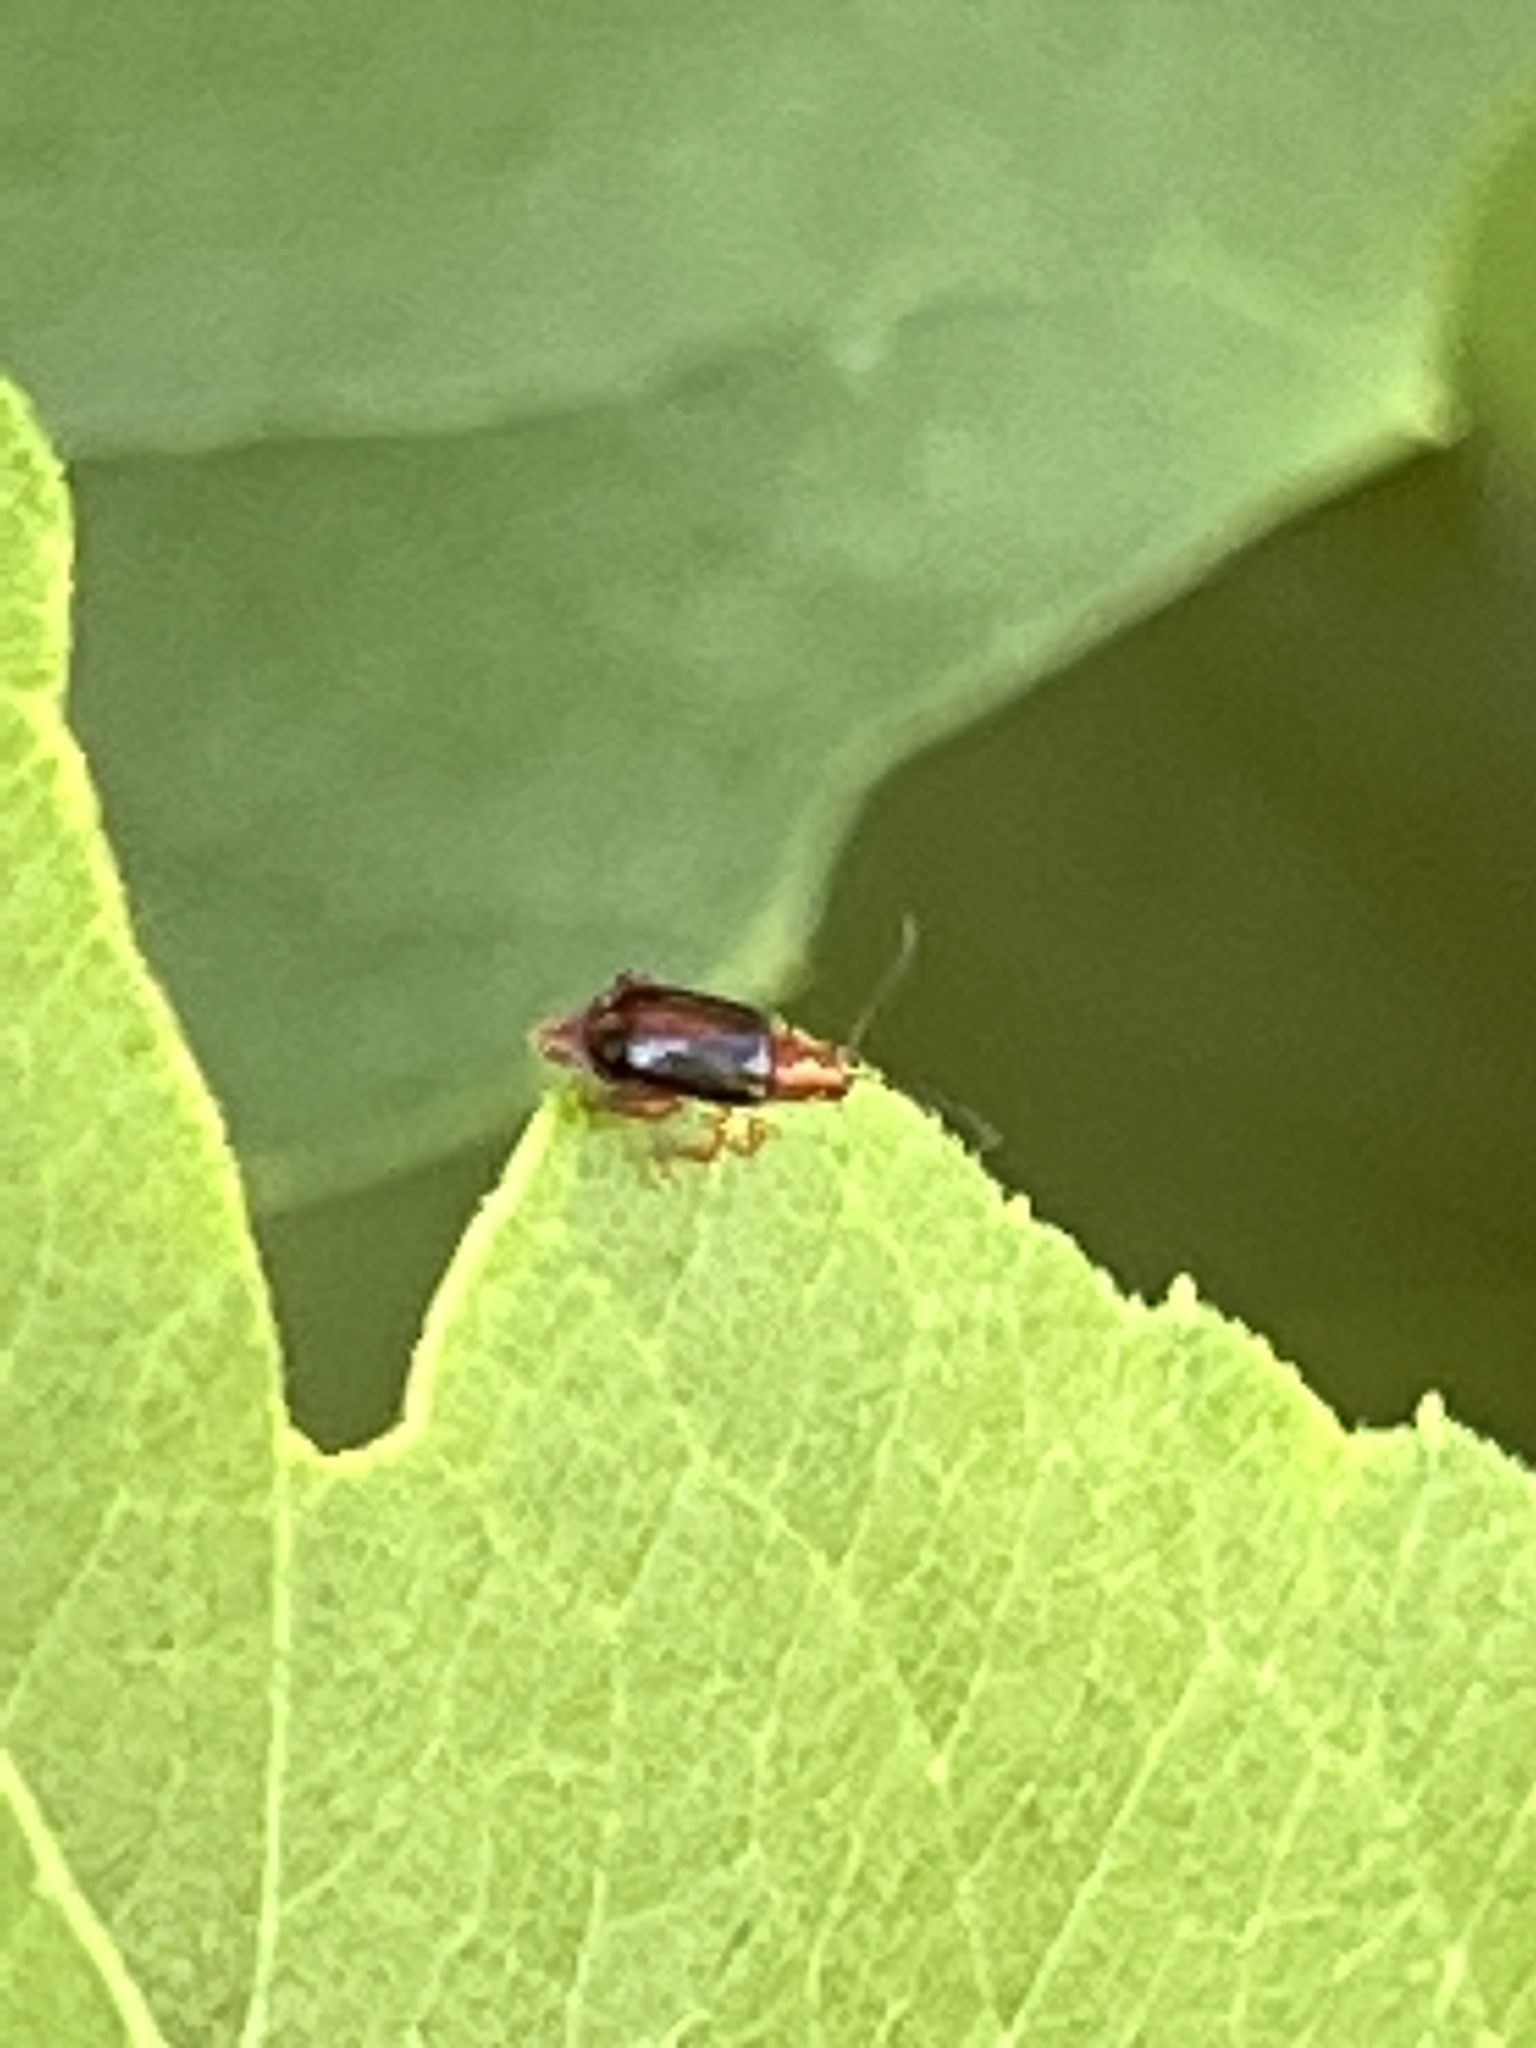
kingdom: Animalia
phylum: Arthropoda
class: Insecta
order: Coleoptera
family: Chrysomelidae
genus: Pachyonychus
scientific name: Pachyonychus paradoxus
